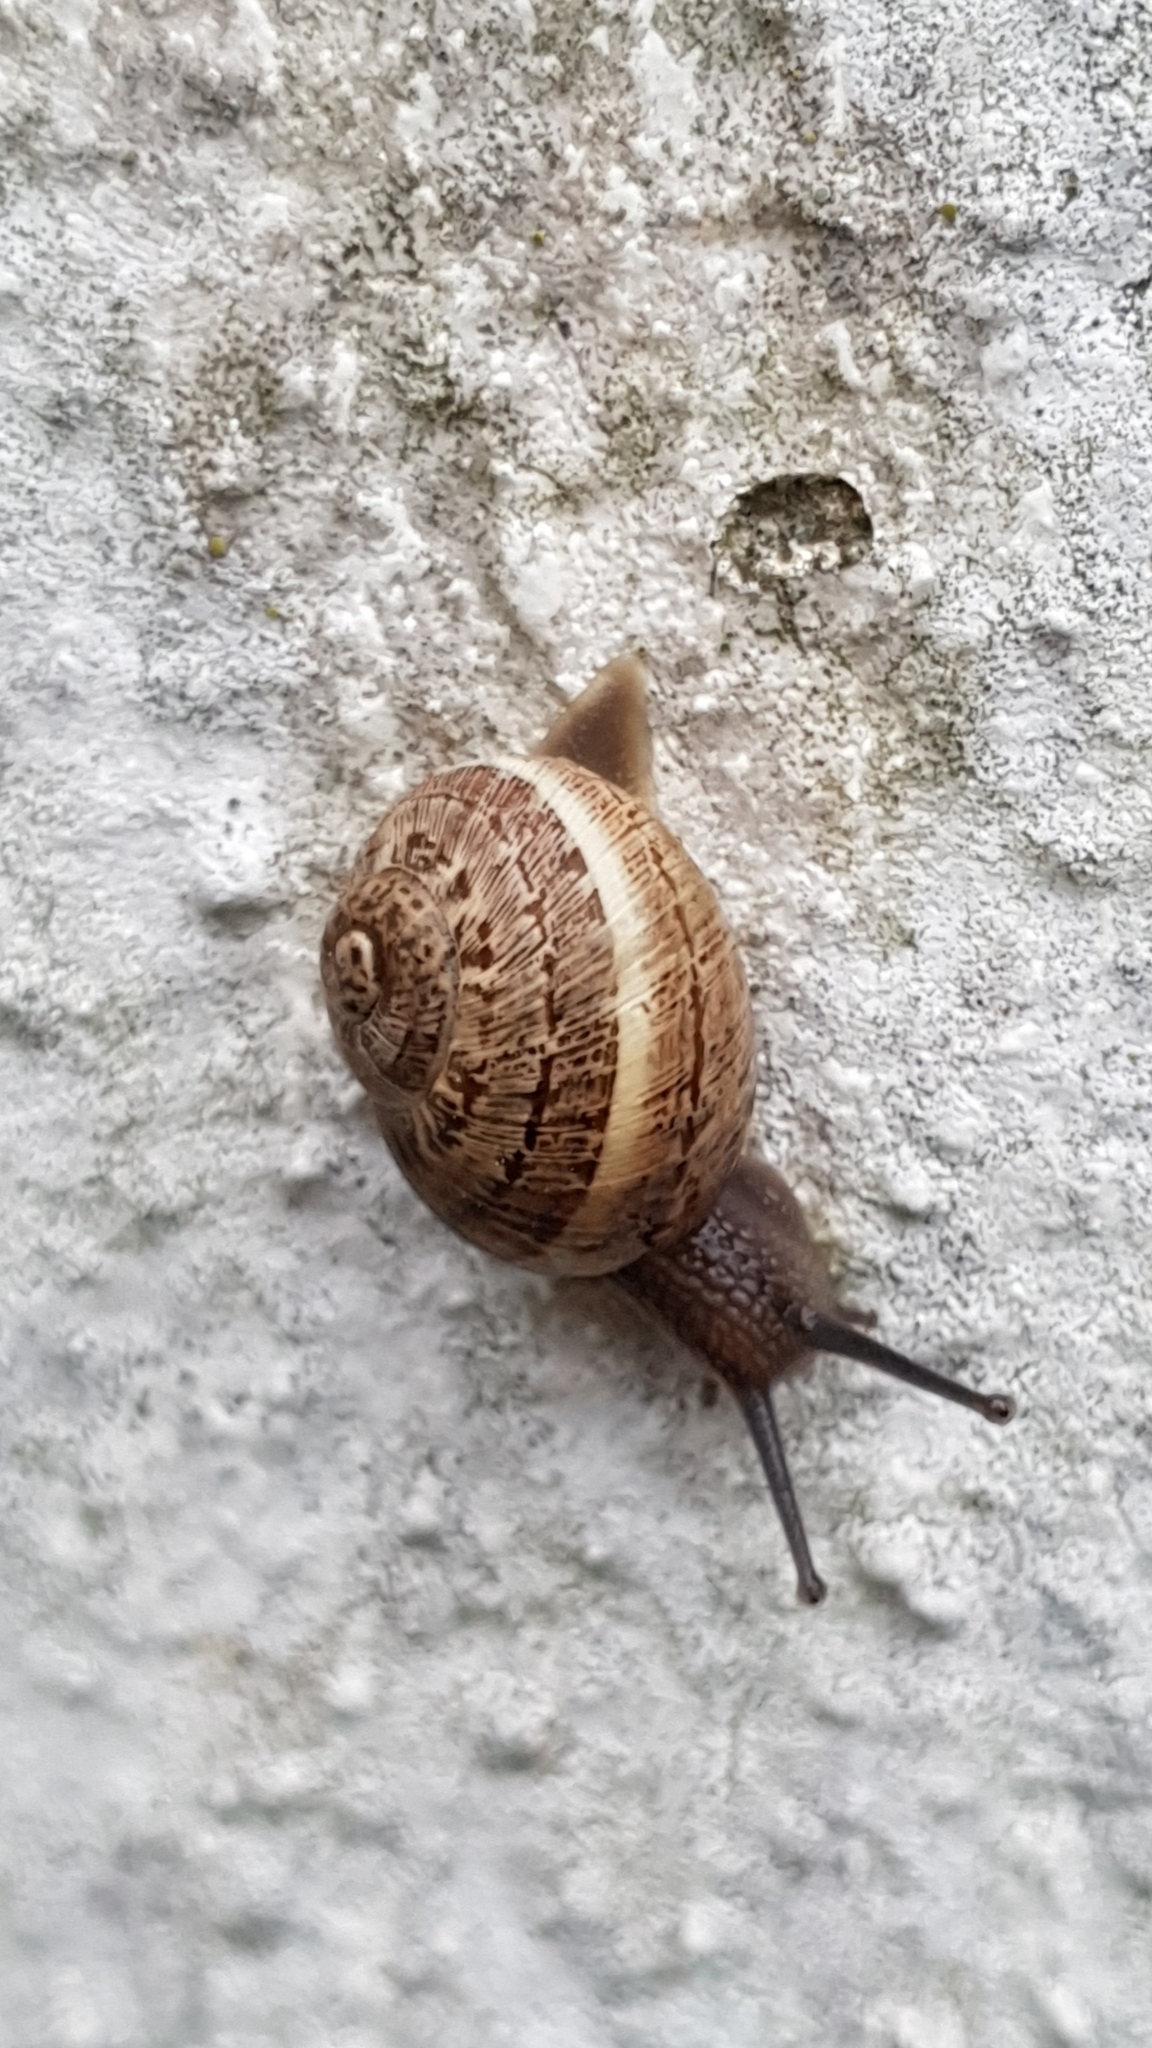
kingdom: Animalia
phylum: Mollusca
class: Gastropoda
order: Stylommatophora
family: Helicidae
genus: Cornu
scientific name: Cornu aspersum
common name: Brown garden snail
